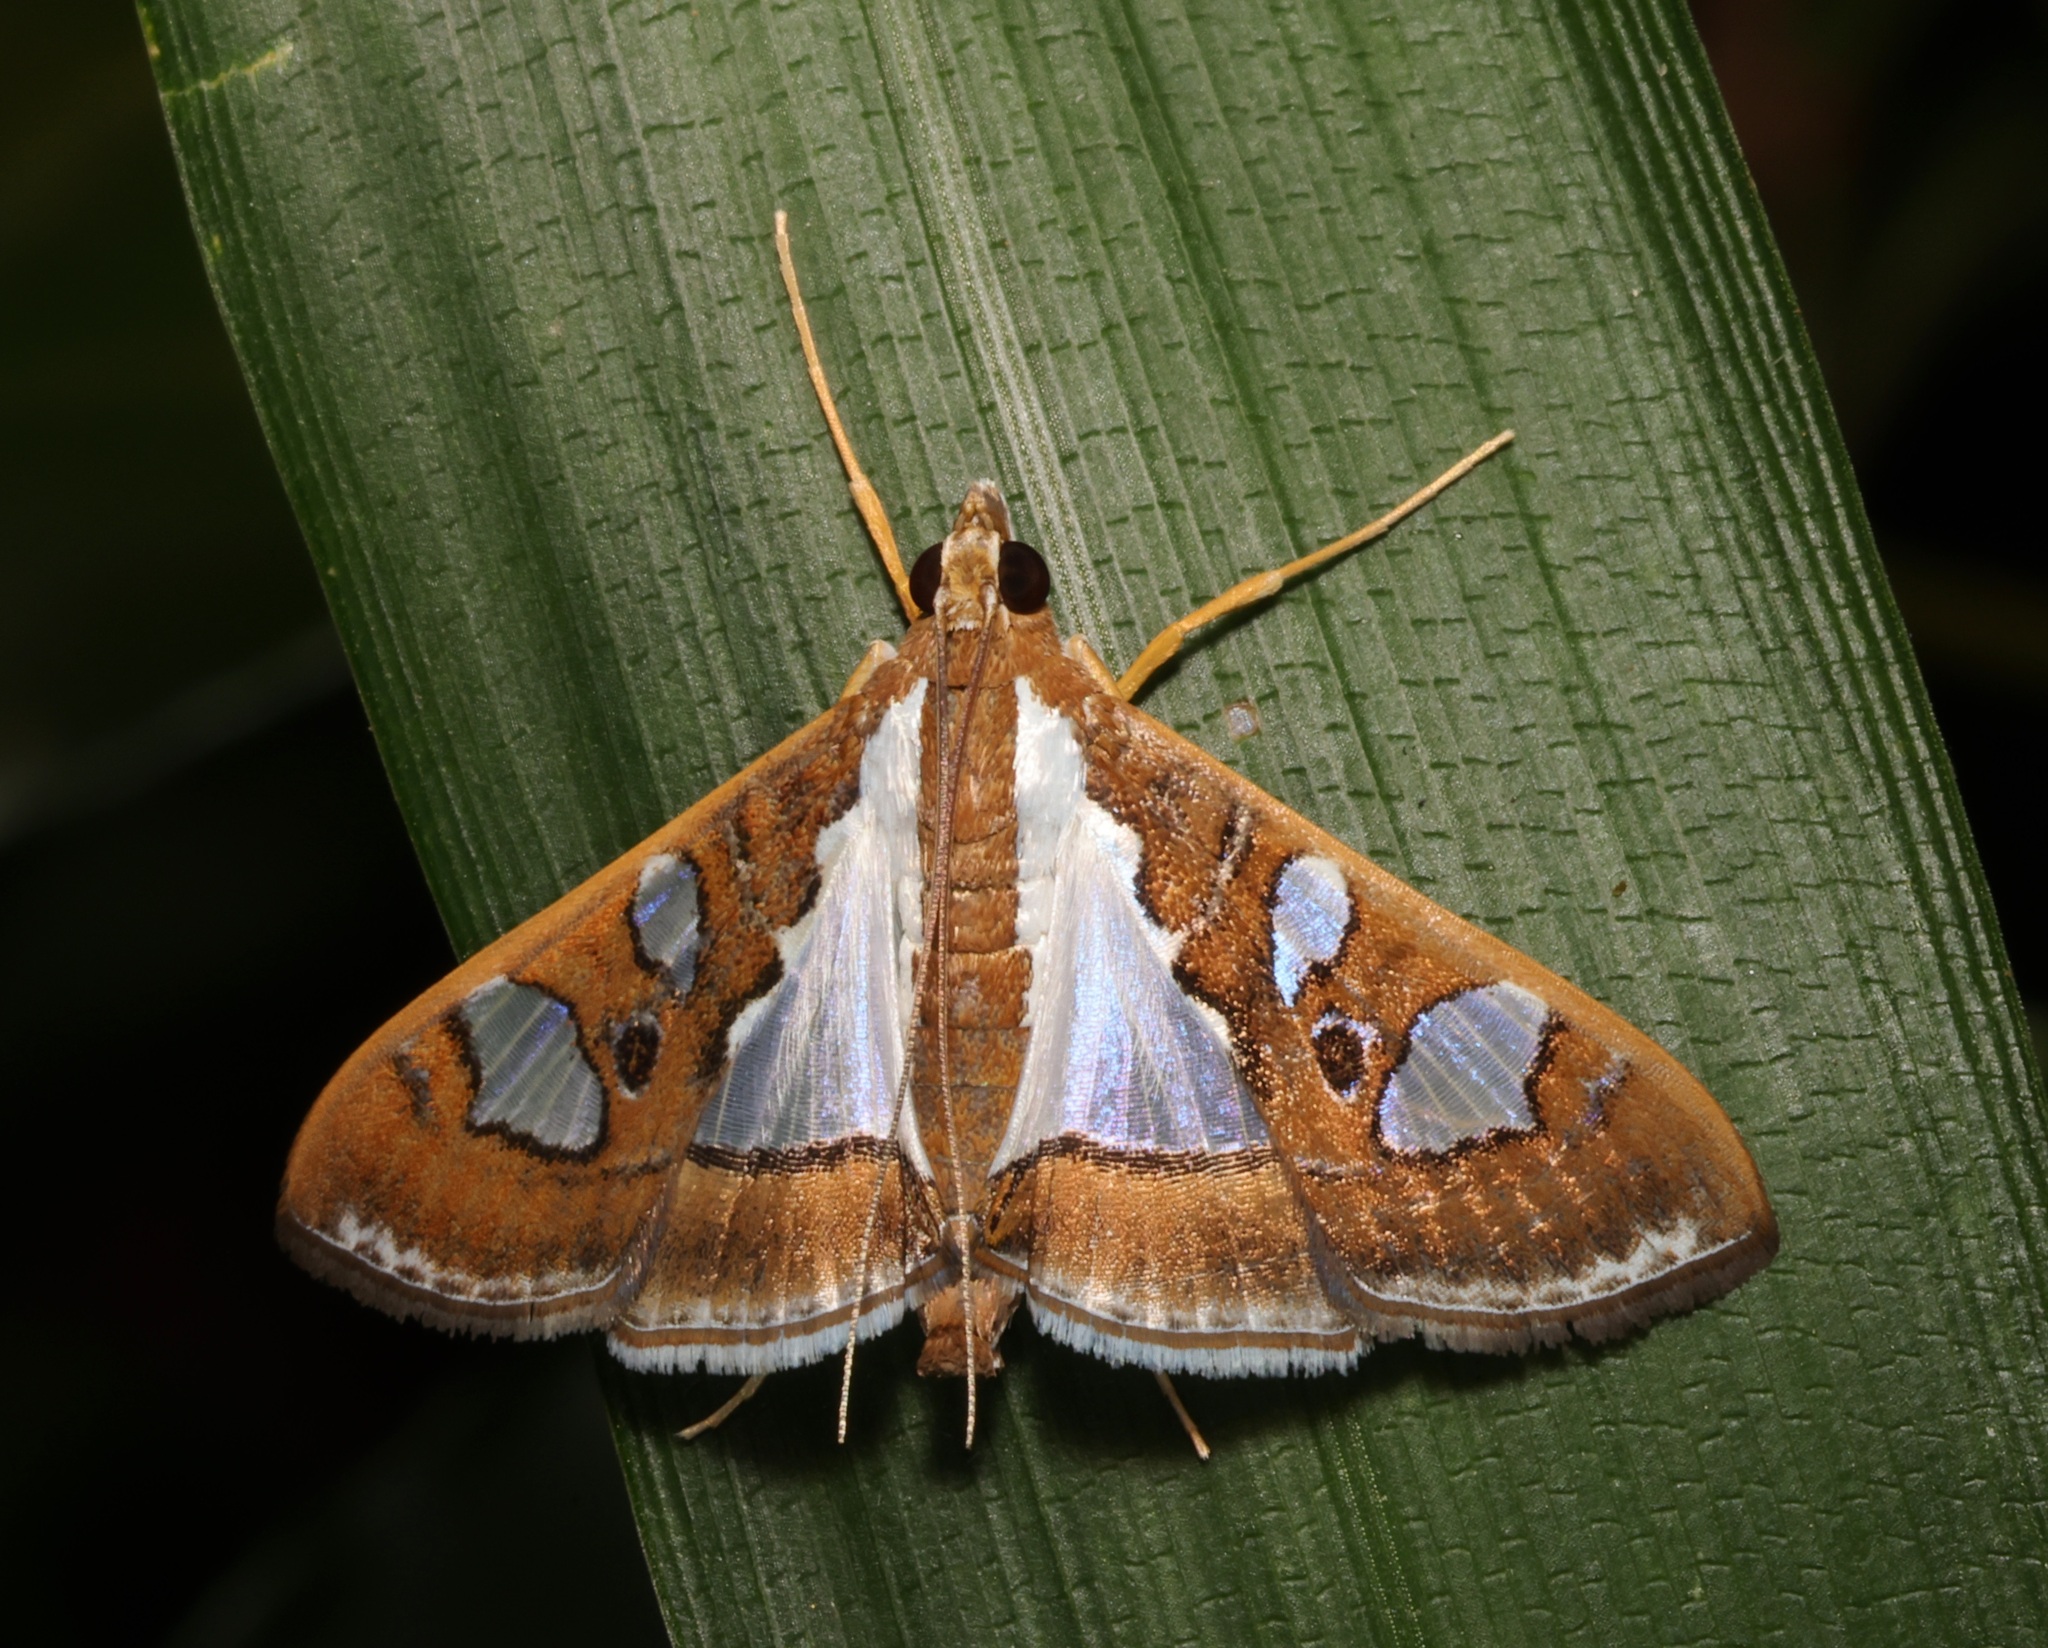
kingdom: Animalia
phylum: Arthropoda
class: Insecta
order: Lepidoptera
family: Crambidae
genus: Glyphodes
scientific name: Glyphodes bivitralis
